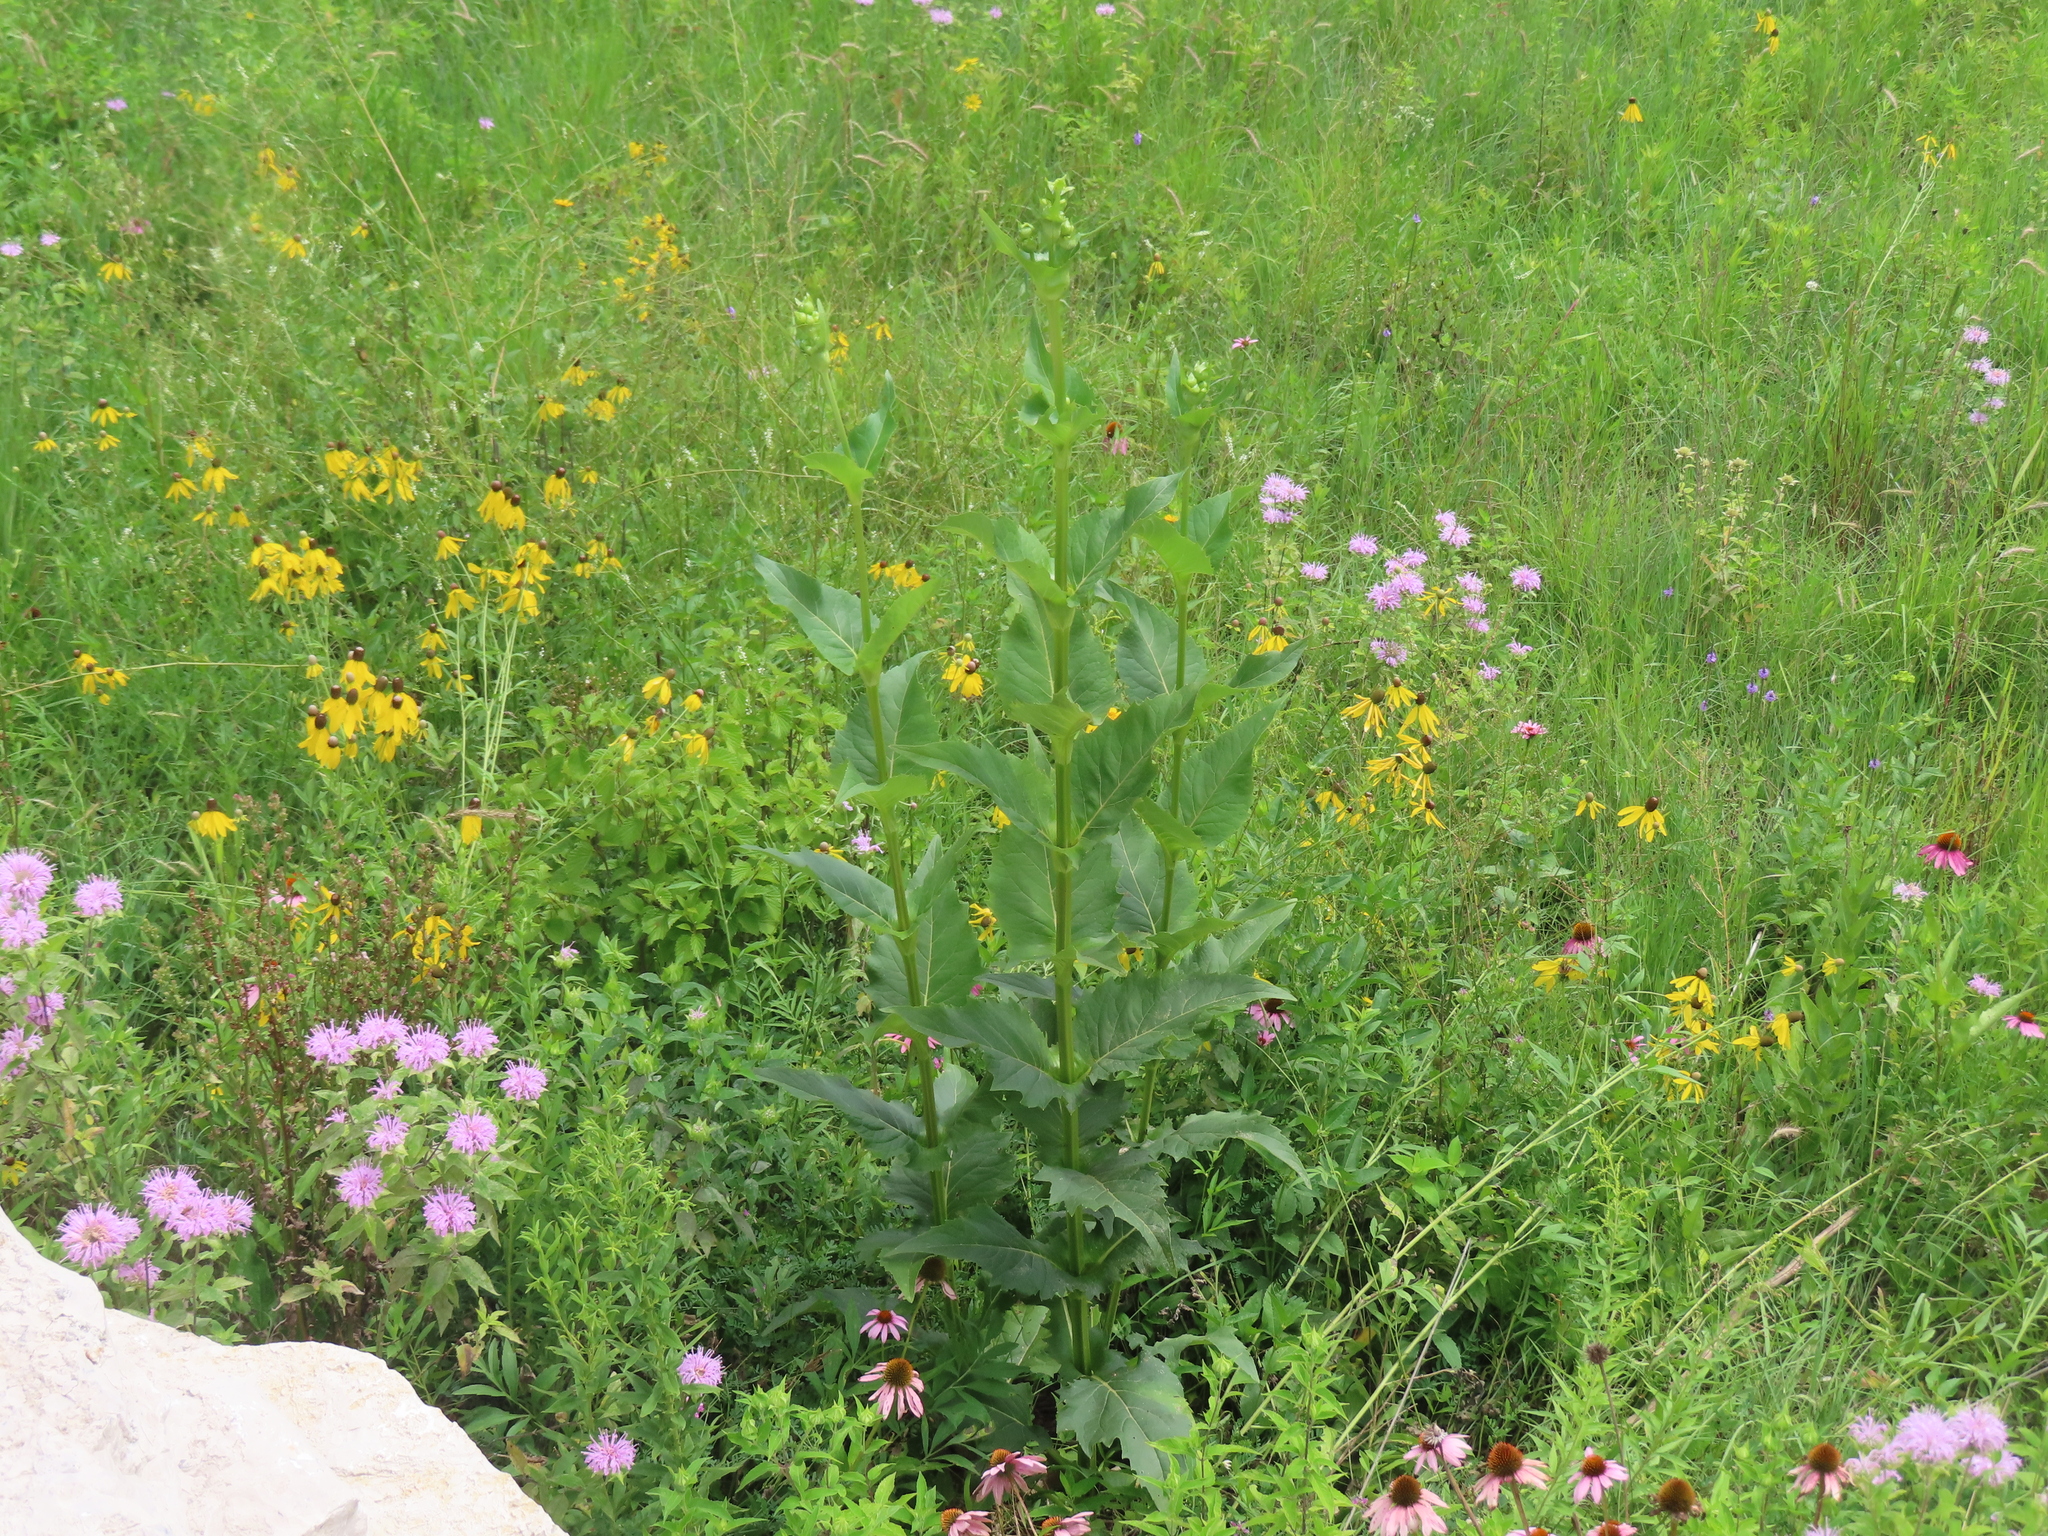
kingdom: Plantae
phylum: Tracheophyta
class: Magnoliopsida
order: Asterales
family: Asteraceae
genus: Silphium
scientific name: Silphium perfoliatum
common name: Cup-plant
